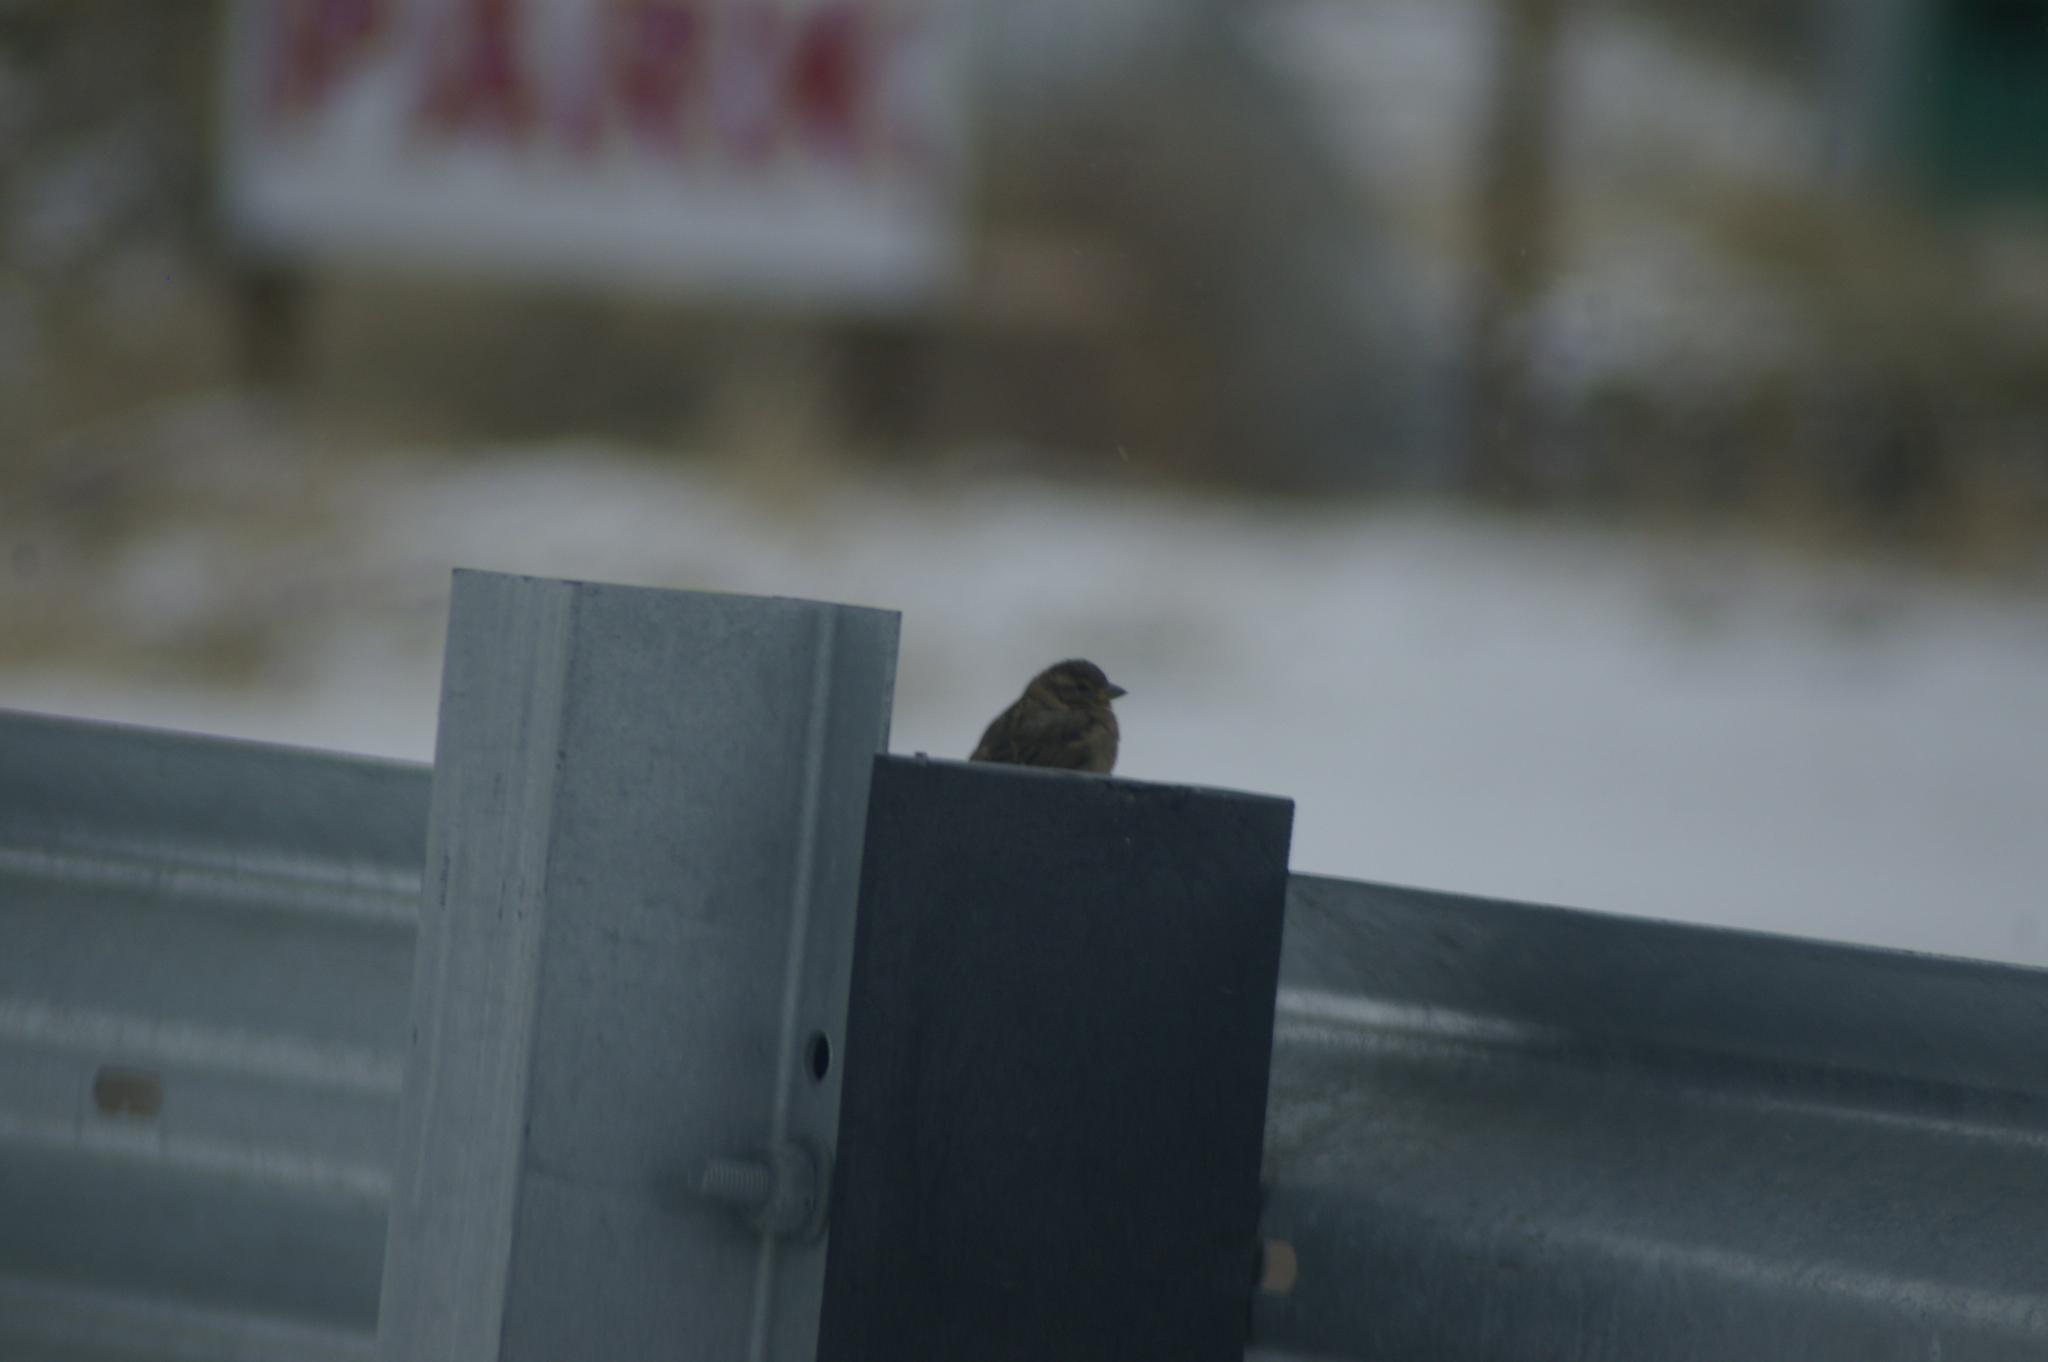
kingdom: Animalia
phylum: Chordata
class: Aves
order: Passeriformes
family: Passeridae
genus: Passer
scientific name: Passer domesticus
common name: House sparrow
